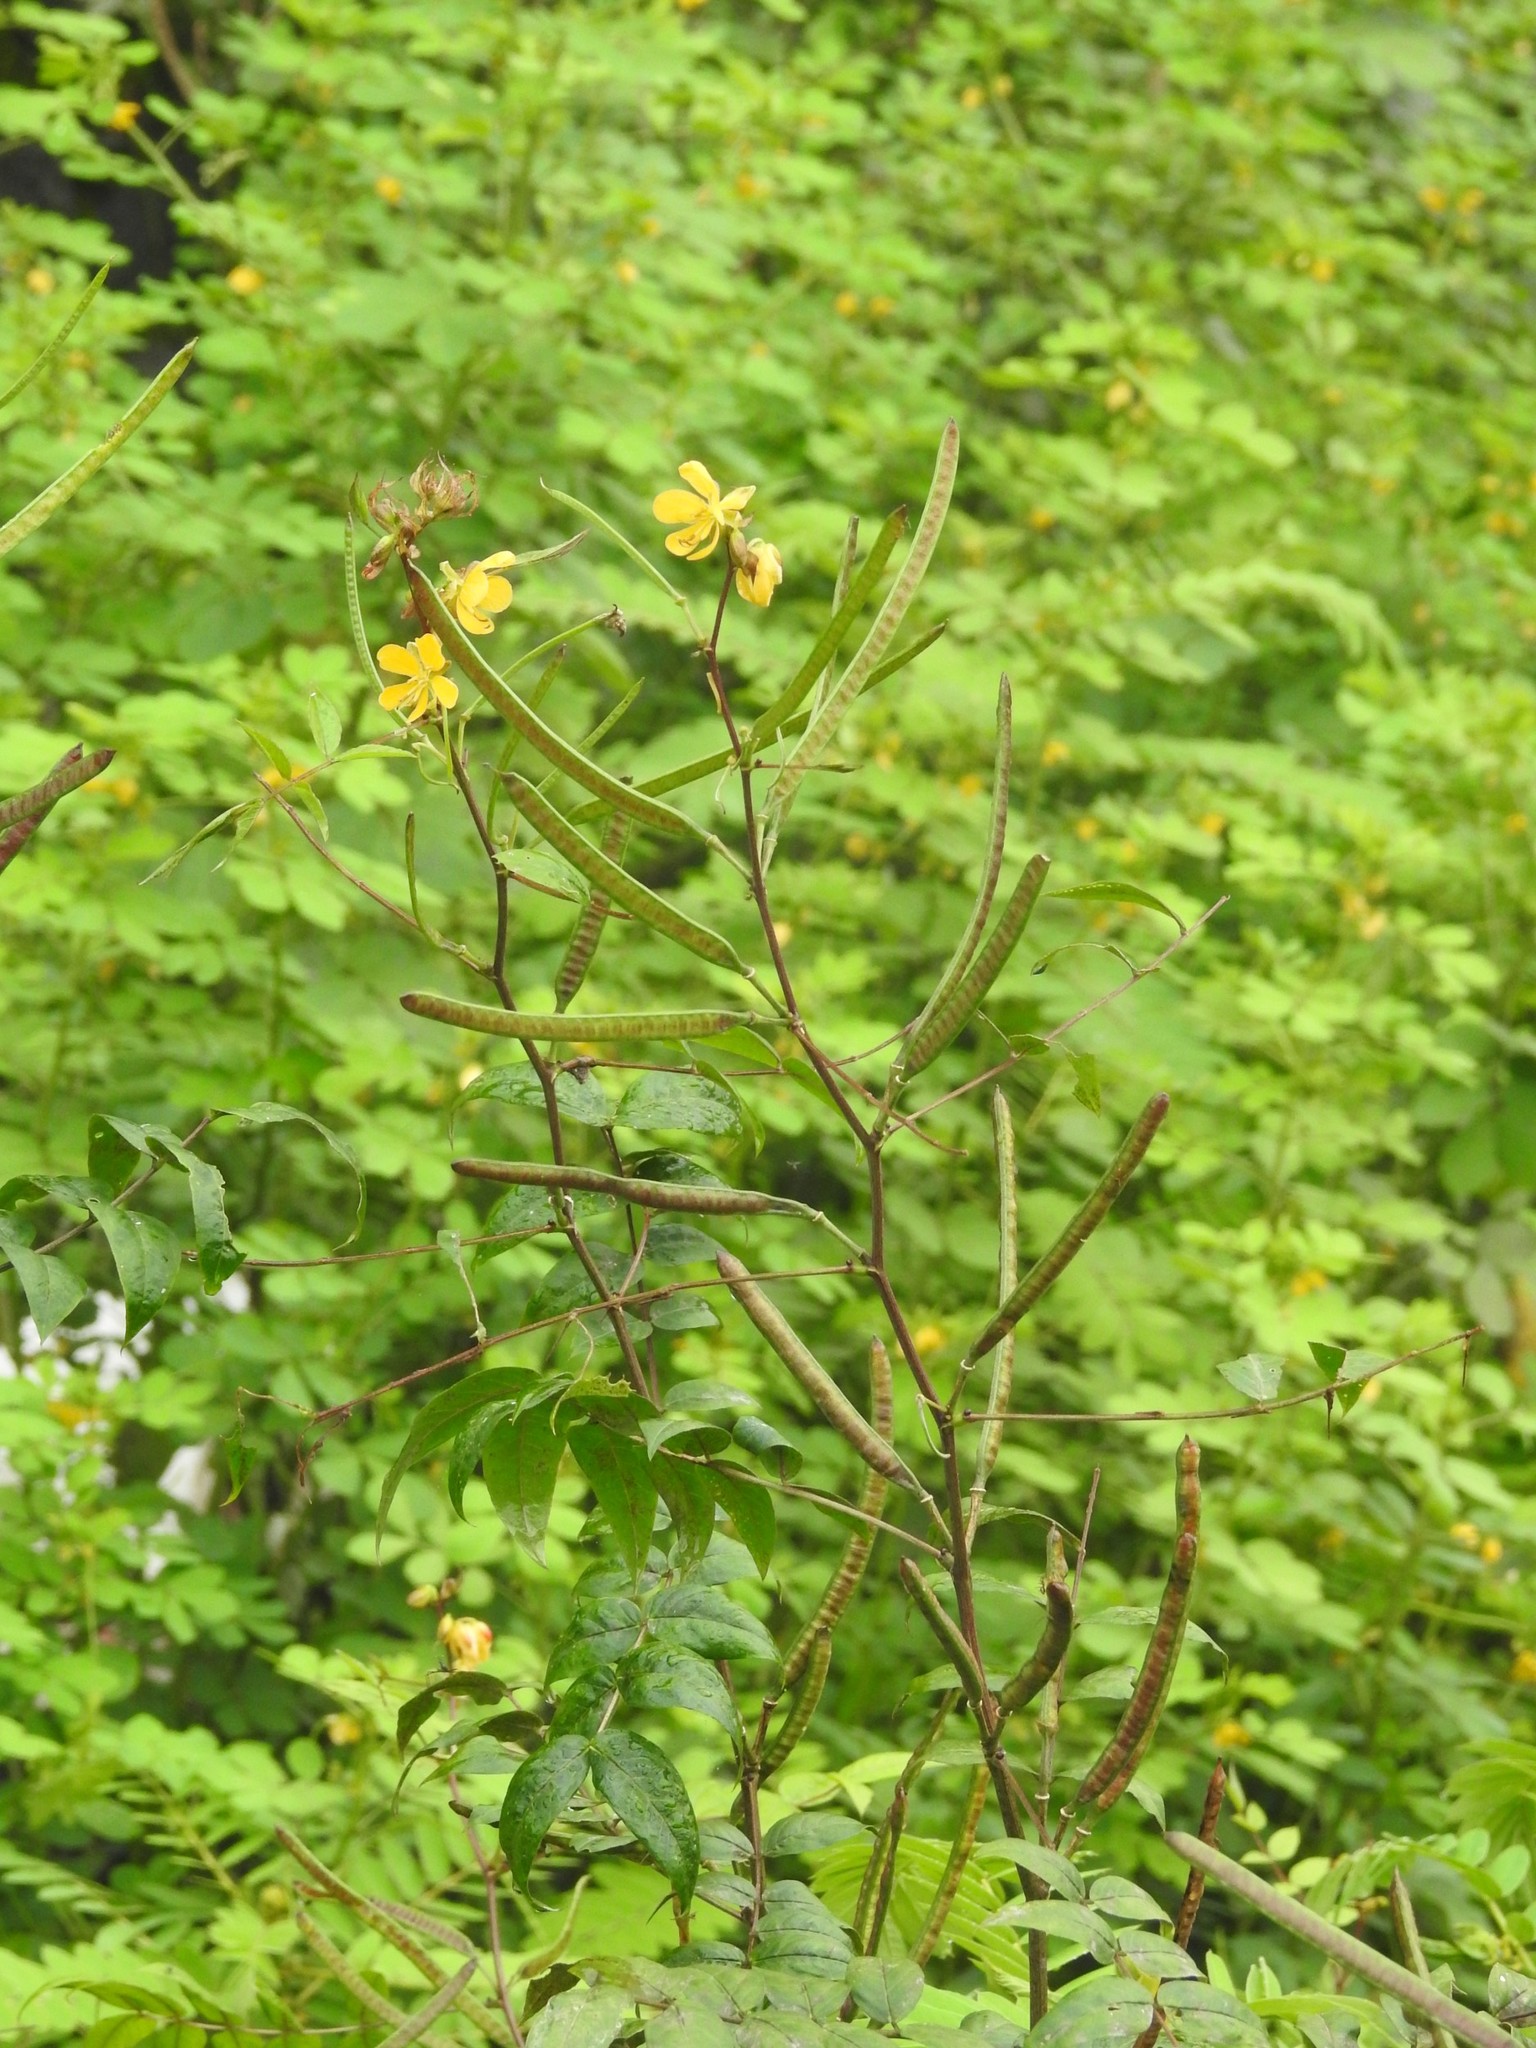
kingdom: Plantae
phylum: Tracheophyta
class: Magnoliopsida
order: Fabales
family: Fabaceae
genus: Senna
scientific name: Senna occidentalis
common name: Septicweed
